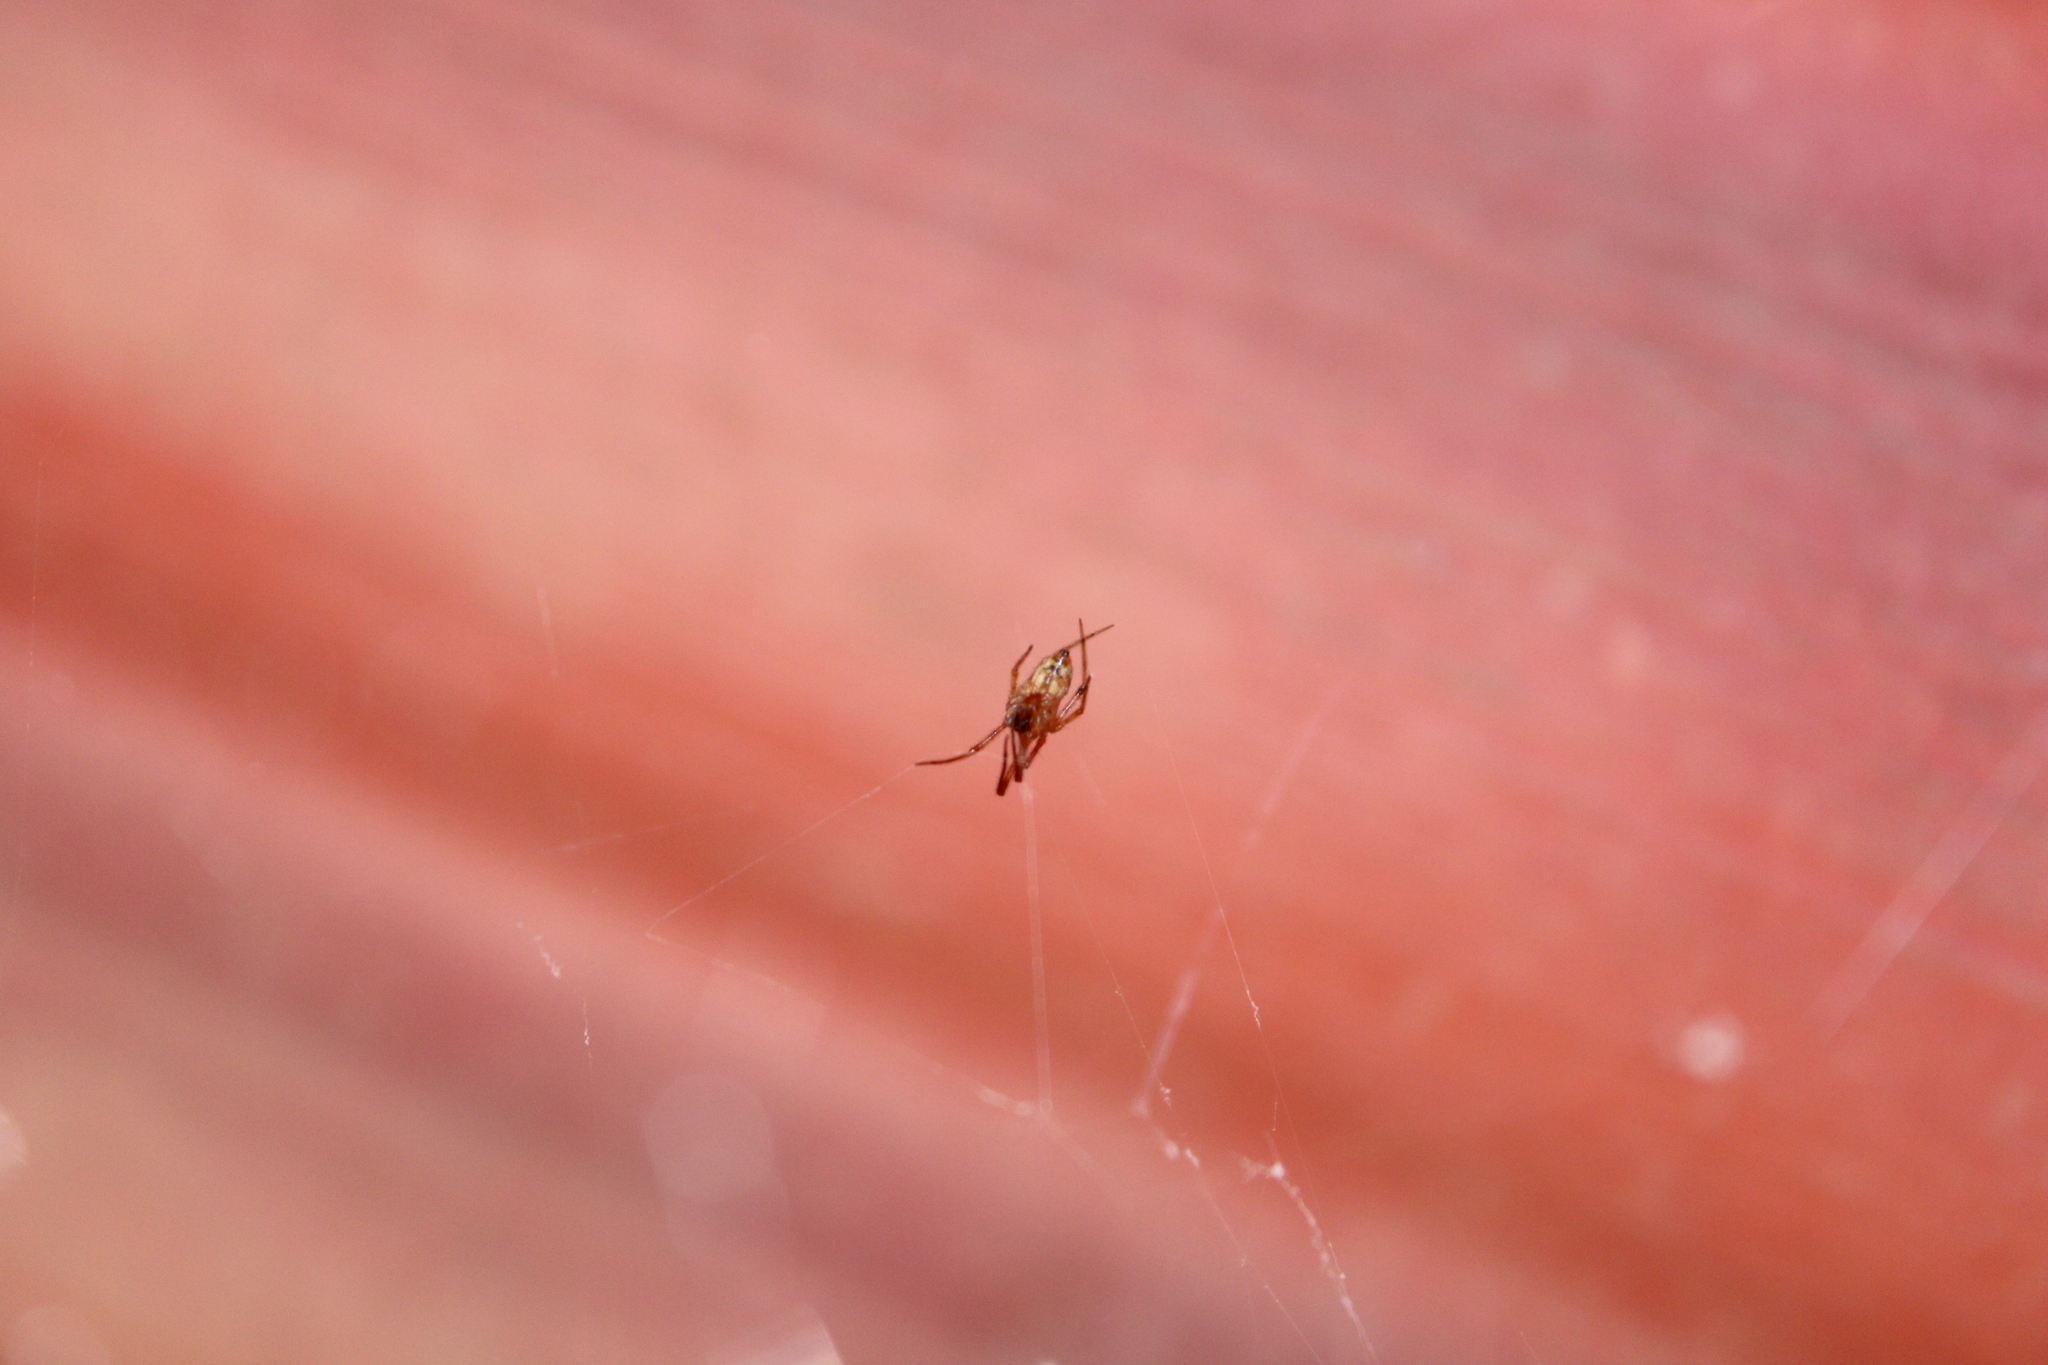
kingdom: Animalia
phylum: Arthropoda
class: Arachnida
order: Araneae
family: Theridiidae
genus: Parasteatoda
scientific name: Parasteatoda tepidariorum
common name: Common house spider
